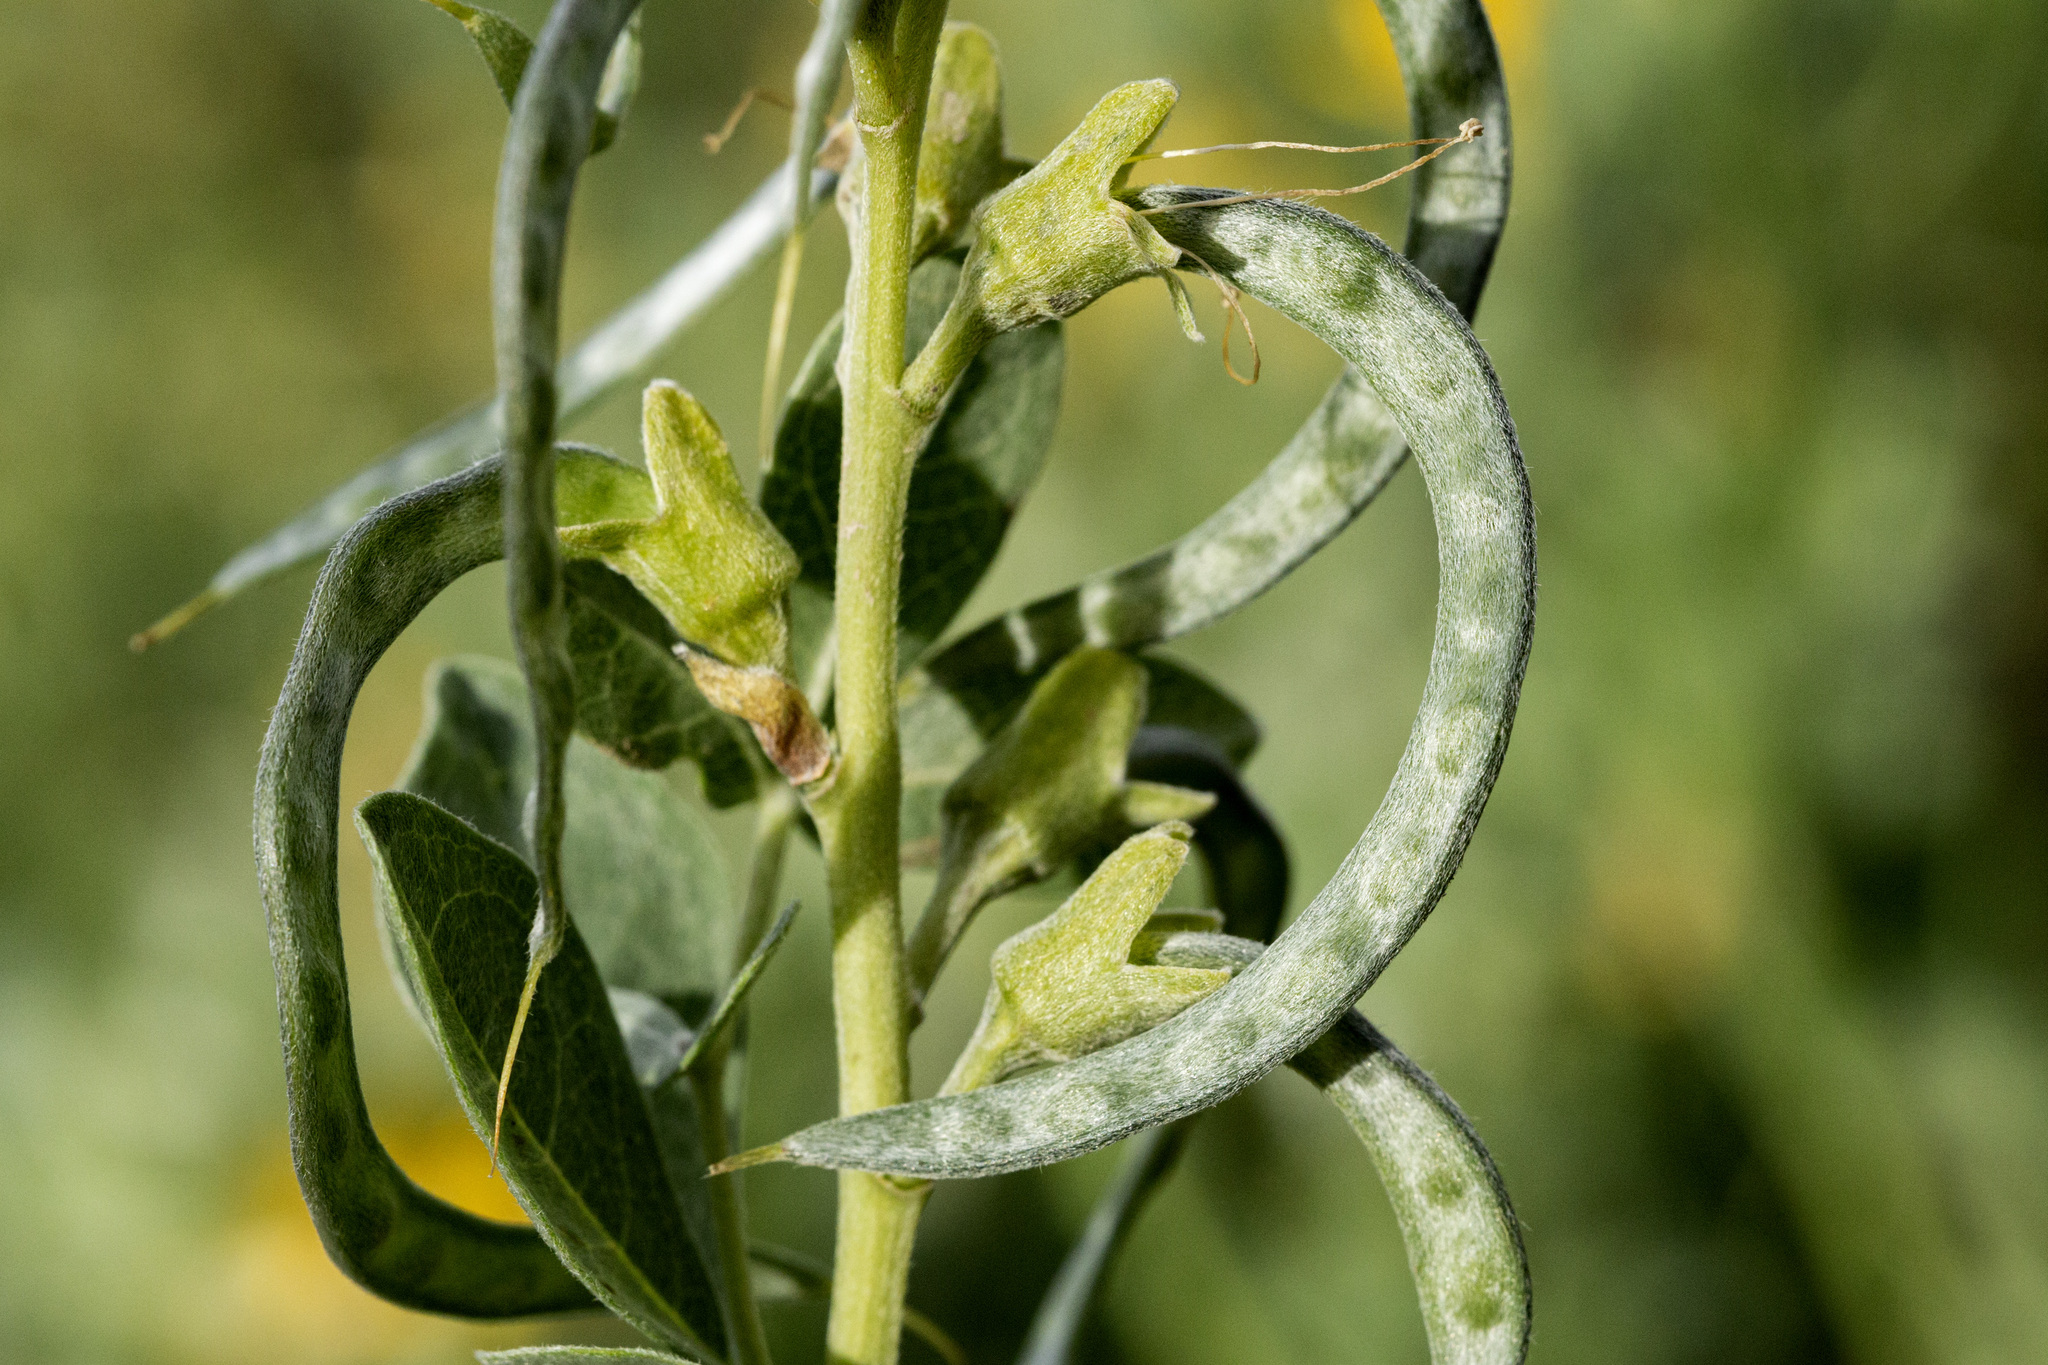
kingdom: Plantae
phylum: Tracheophyta
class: Magnoliopsida
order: Fabales
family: Fabaceae
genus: Thermopsis
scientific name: Thermopsis rhombifolia
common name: Circle-pod-pea
